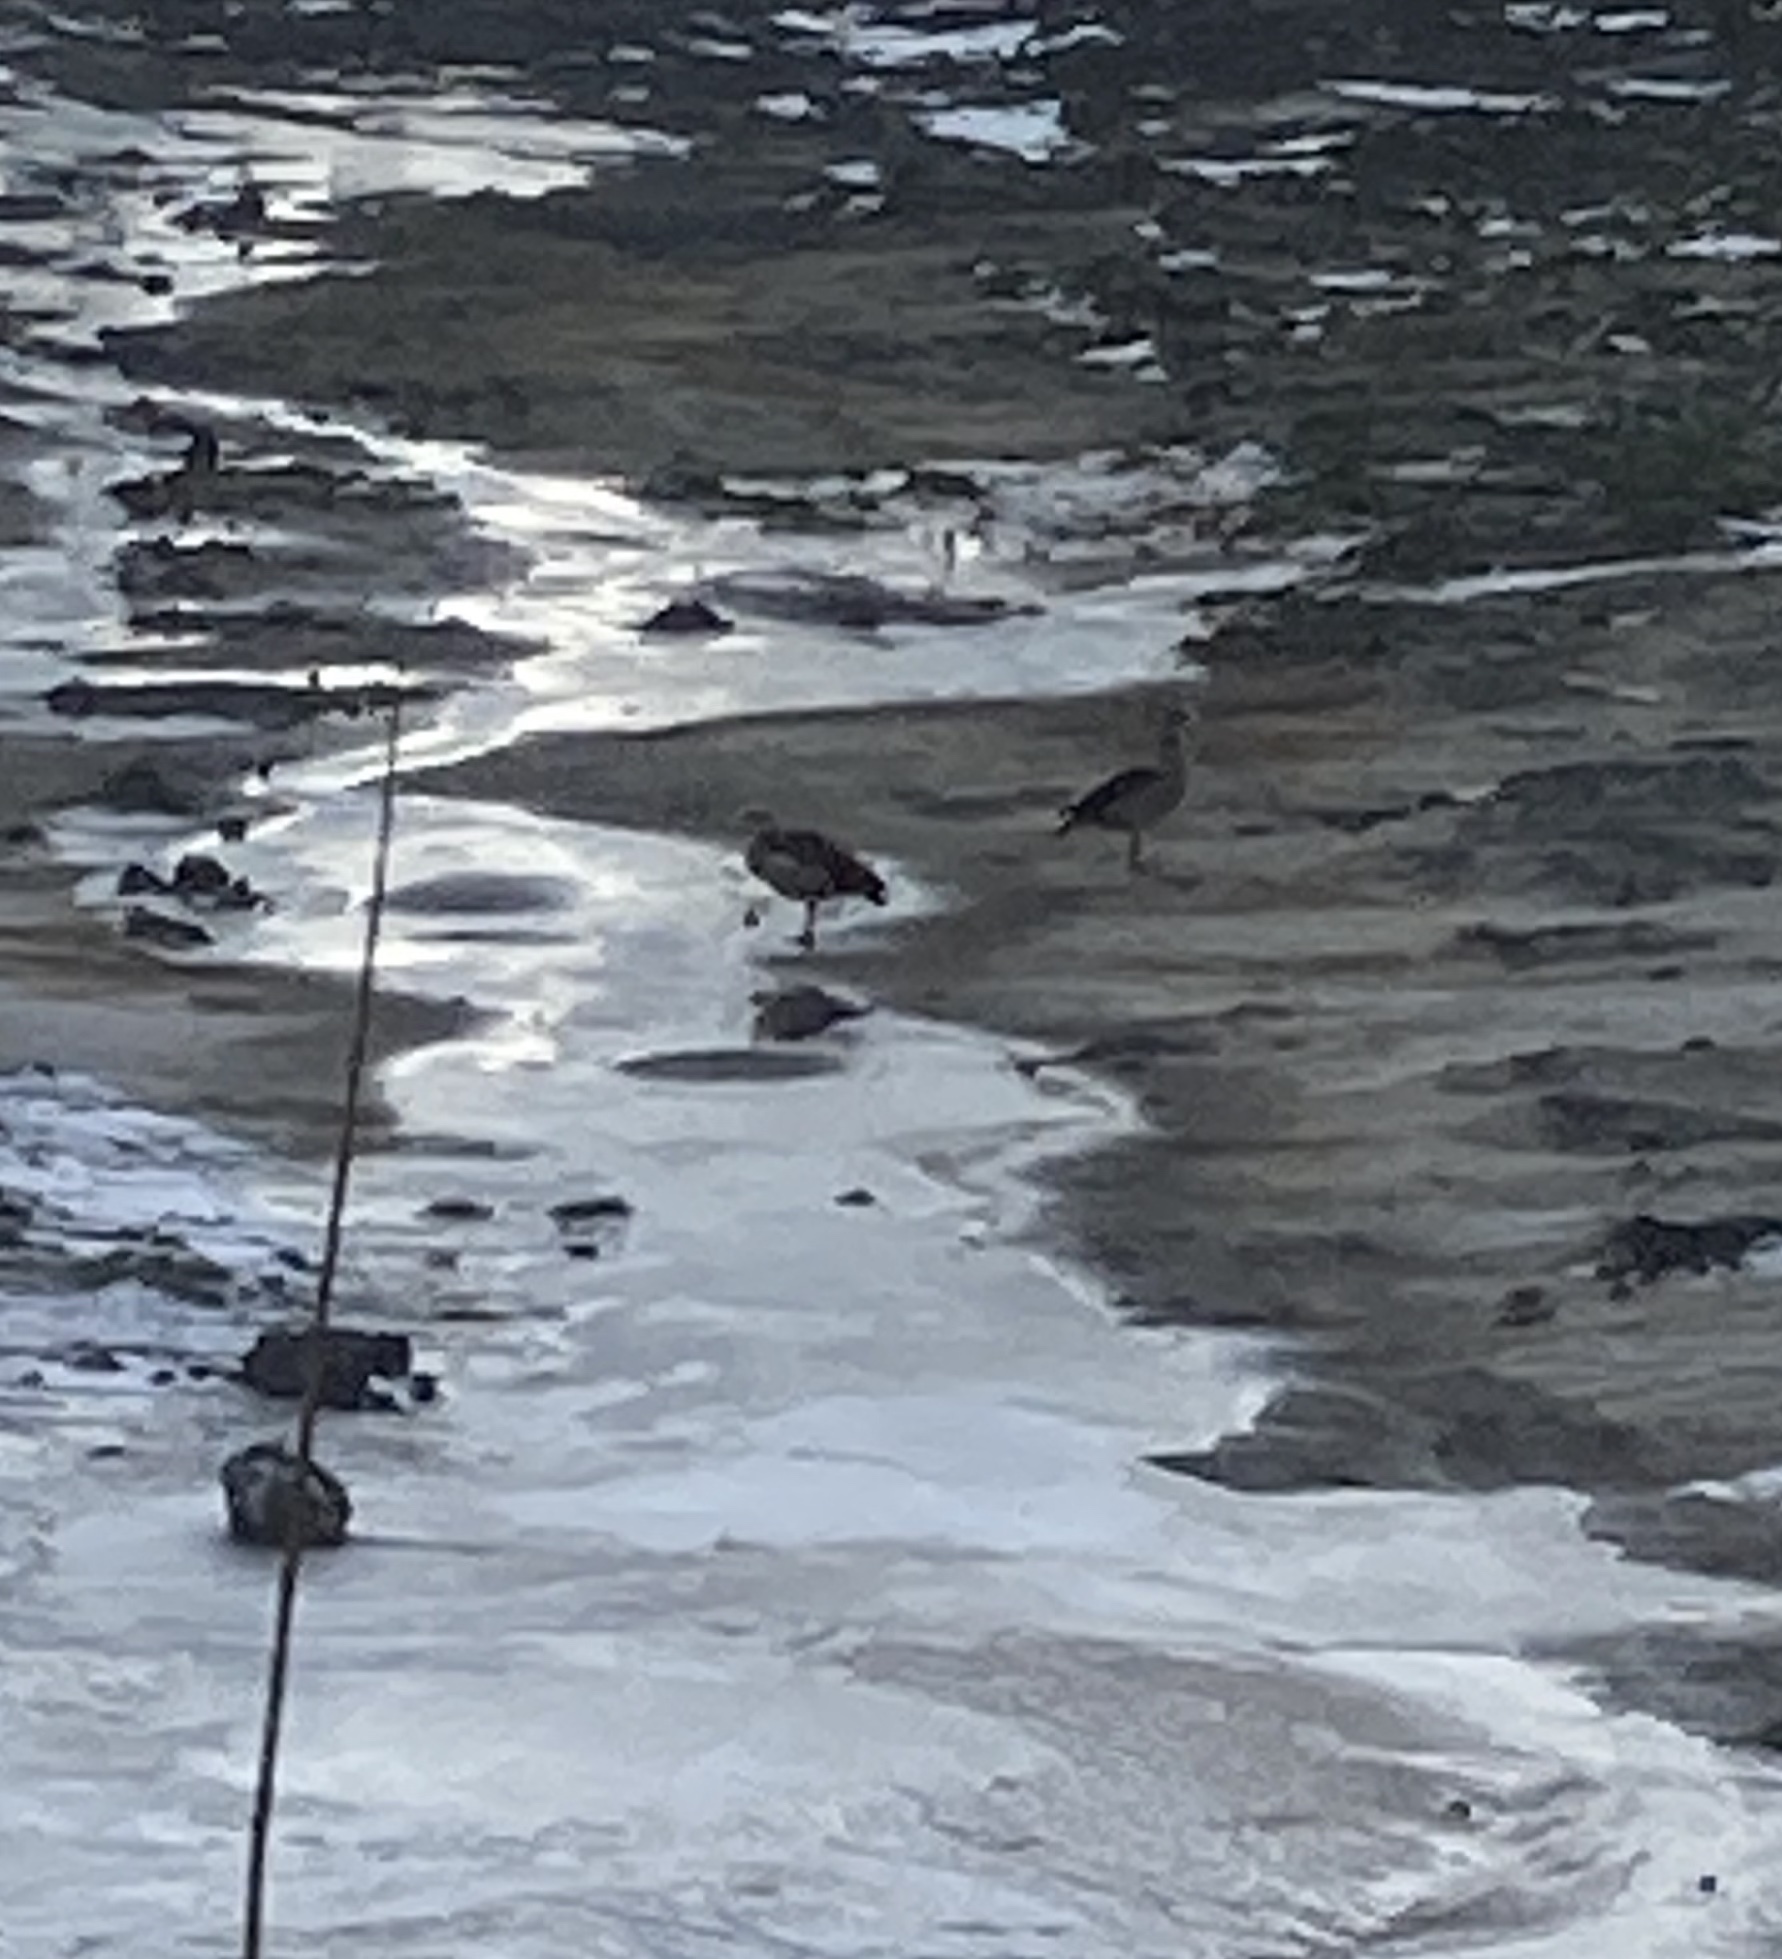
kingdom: Animalia
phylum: Chordata
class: Aves
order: Anseriformes
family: Anatidae
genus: Alopochen
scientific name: Alopochen aegyptiaca
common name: Egyptian goose
